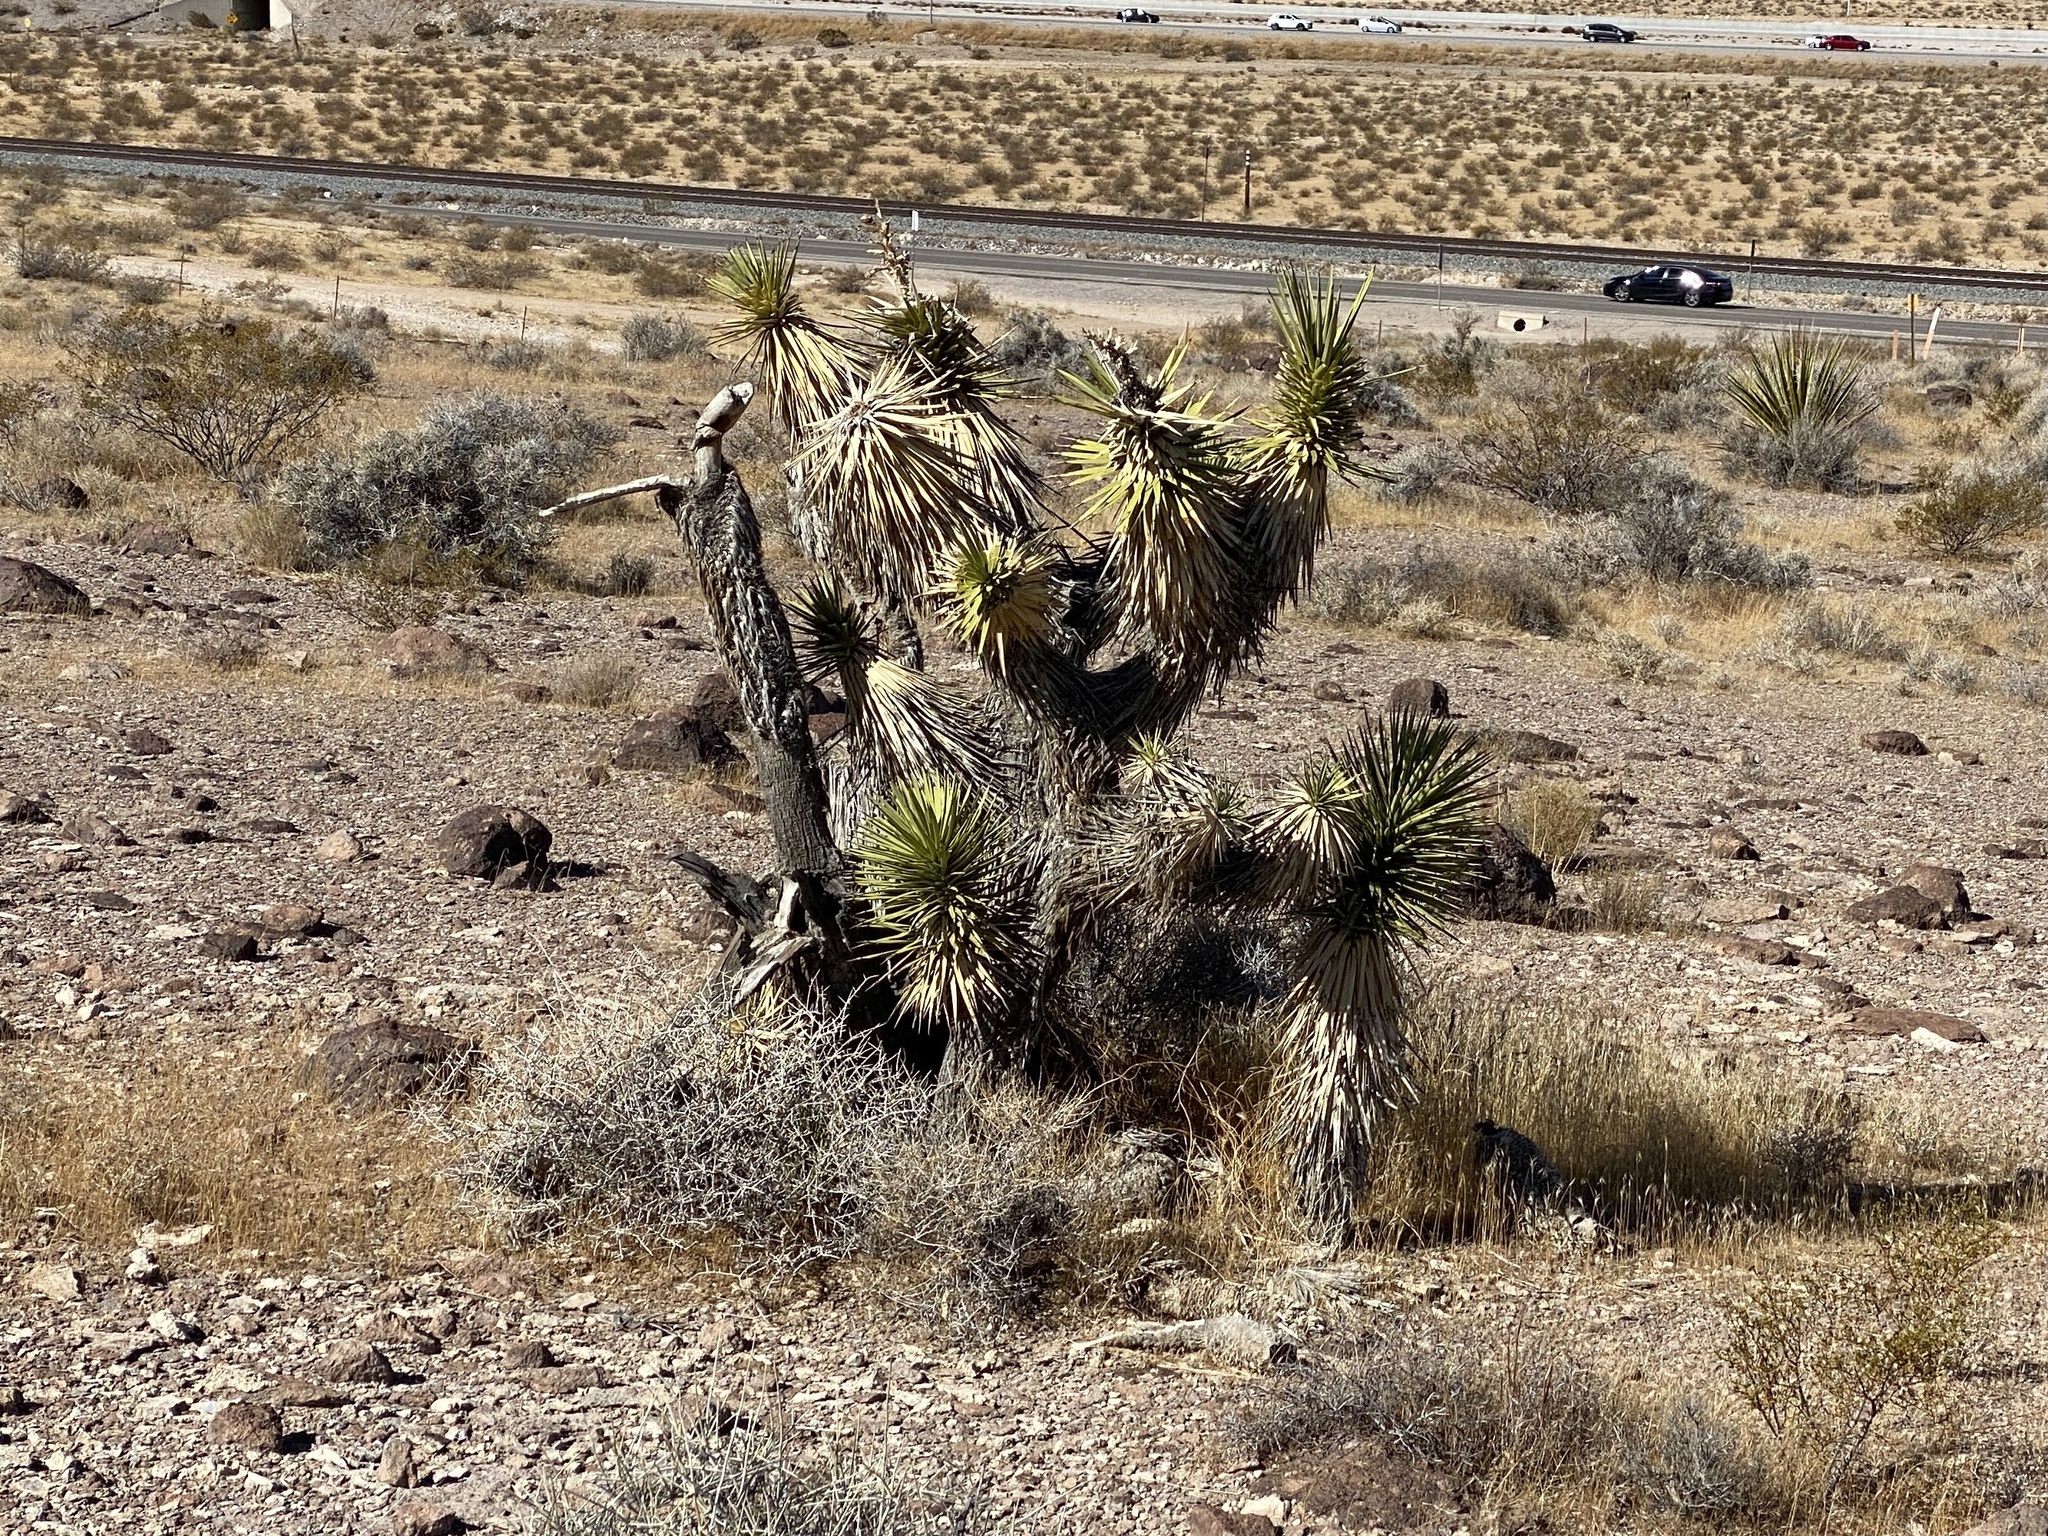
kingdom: Plantae
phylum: Tracheophyta
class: Liliopsida
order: Asparagales
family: Asparagaceae
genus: Yucca
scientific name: Yucca brevifolia
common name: Joshua tree
